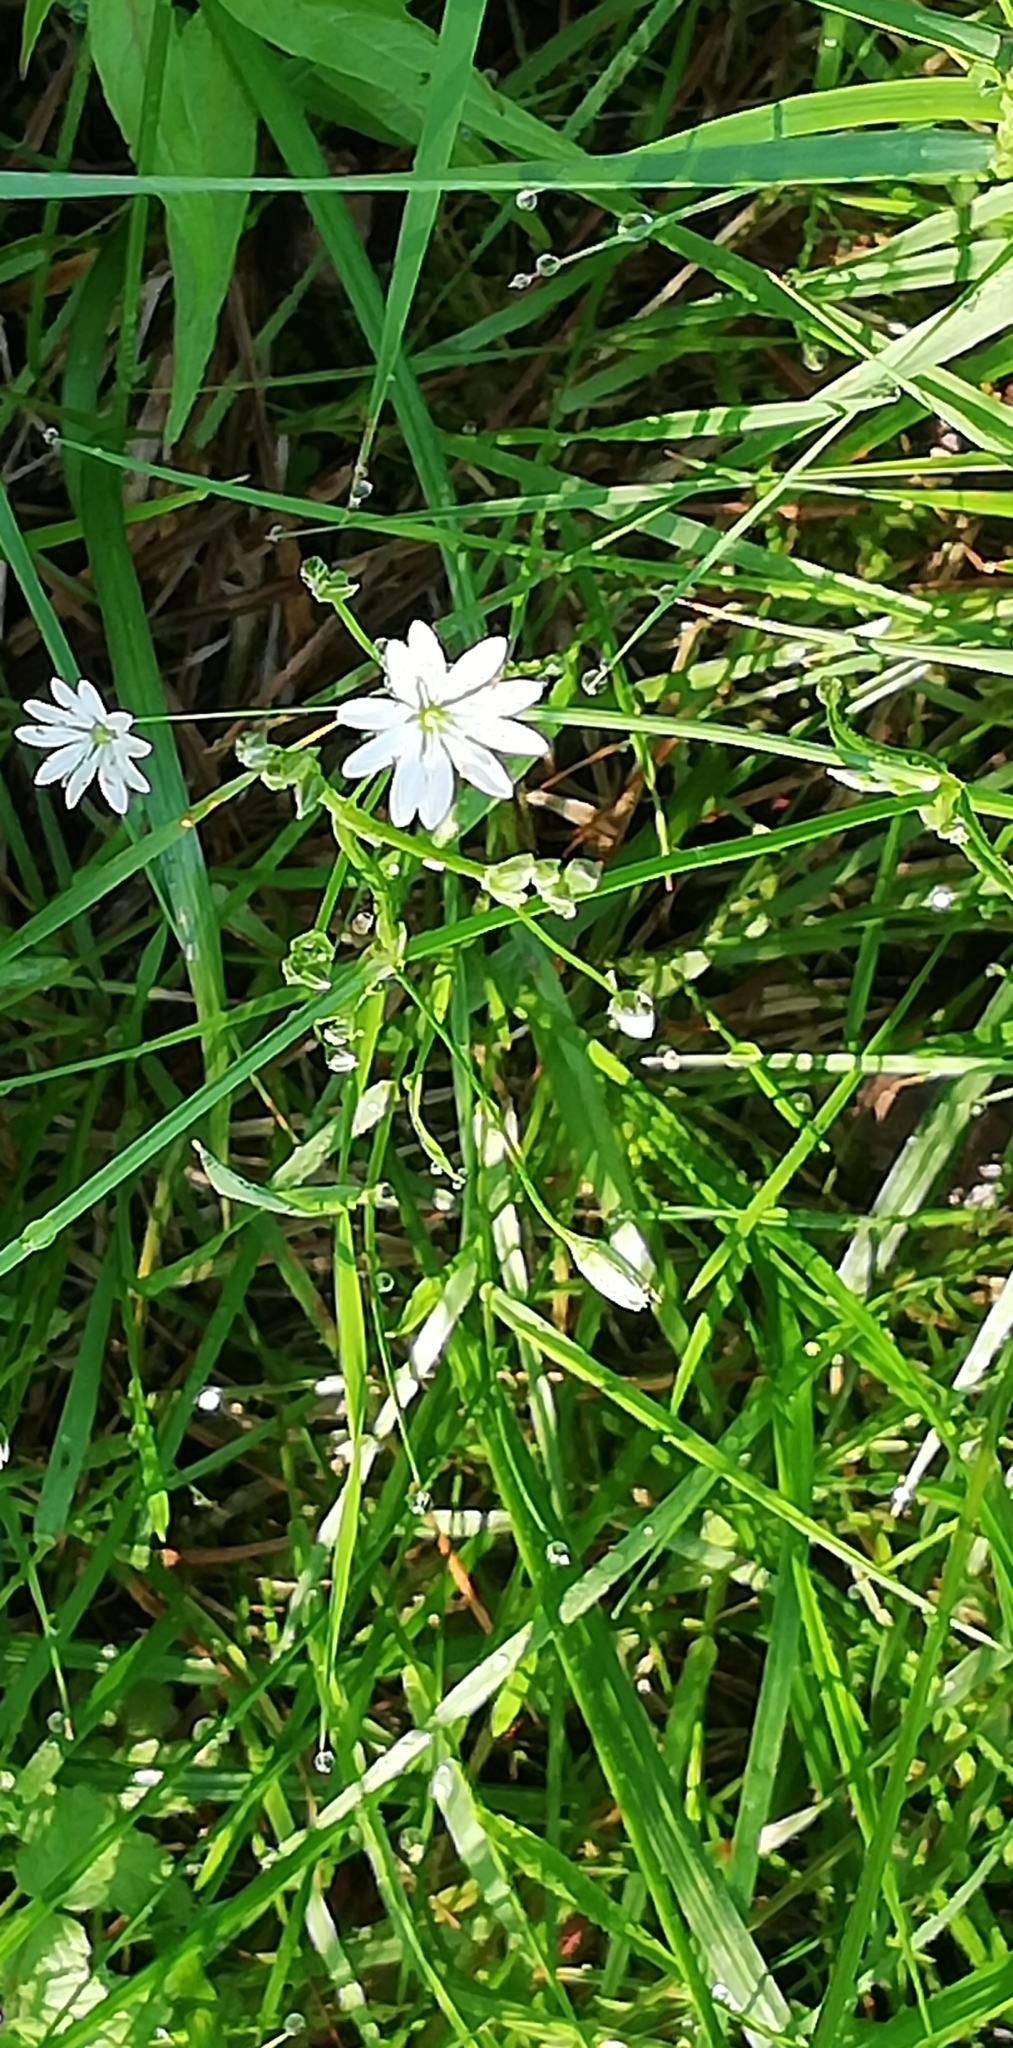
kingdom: Plantae
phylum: Tracheophyta
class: Magnoliopsida
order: Caryophyllales
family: Caryophyllaceae
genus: Stellaria
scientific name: Stellaria graminea
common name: Grass-like starwort
